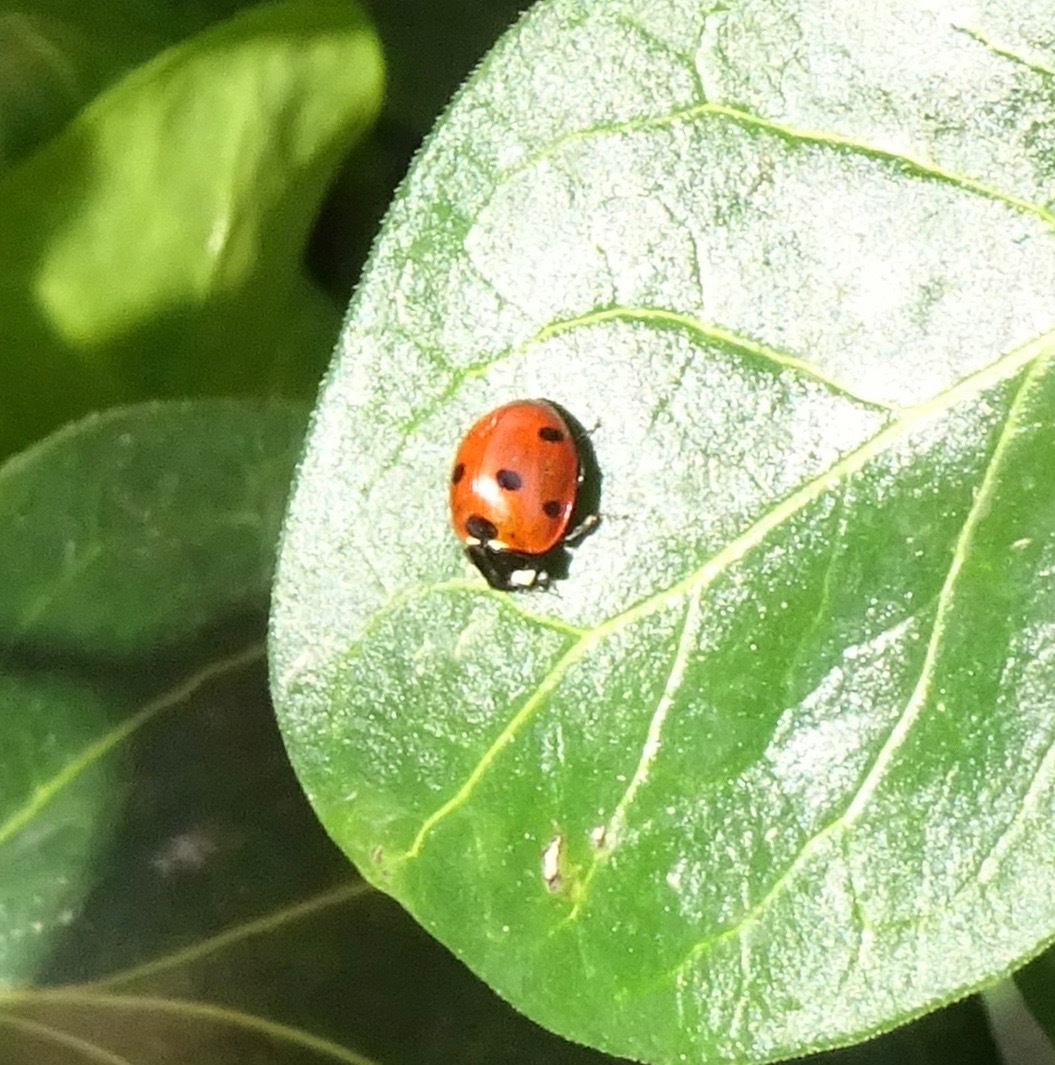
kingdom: Animalia
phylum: Arthropoda
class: Insecta
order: Coleoptera
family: Coccinellidae
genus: Coccinella
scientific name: Coccinella septempunctata
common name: Sevenspotted lady beetle
